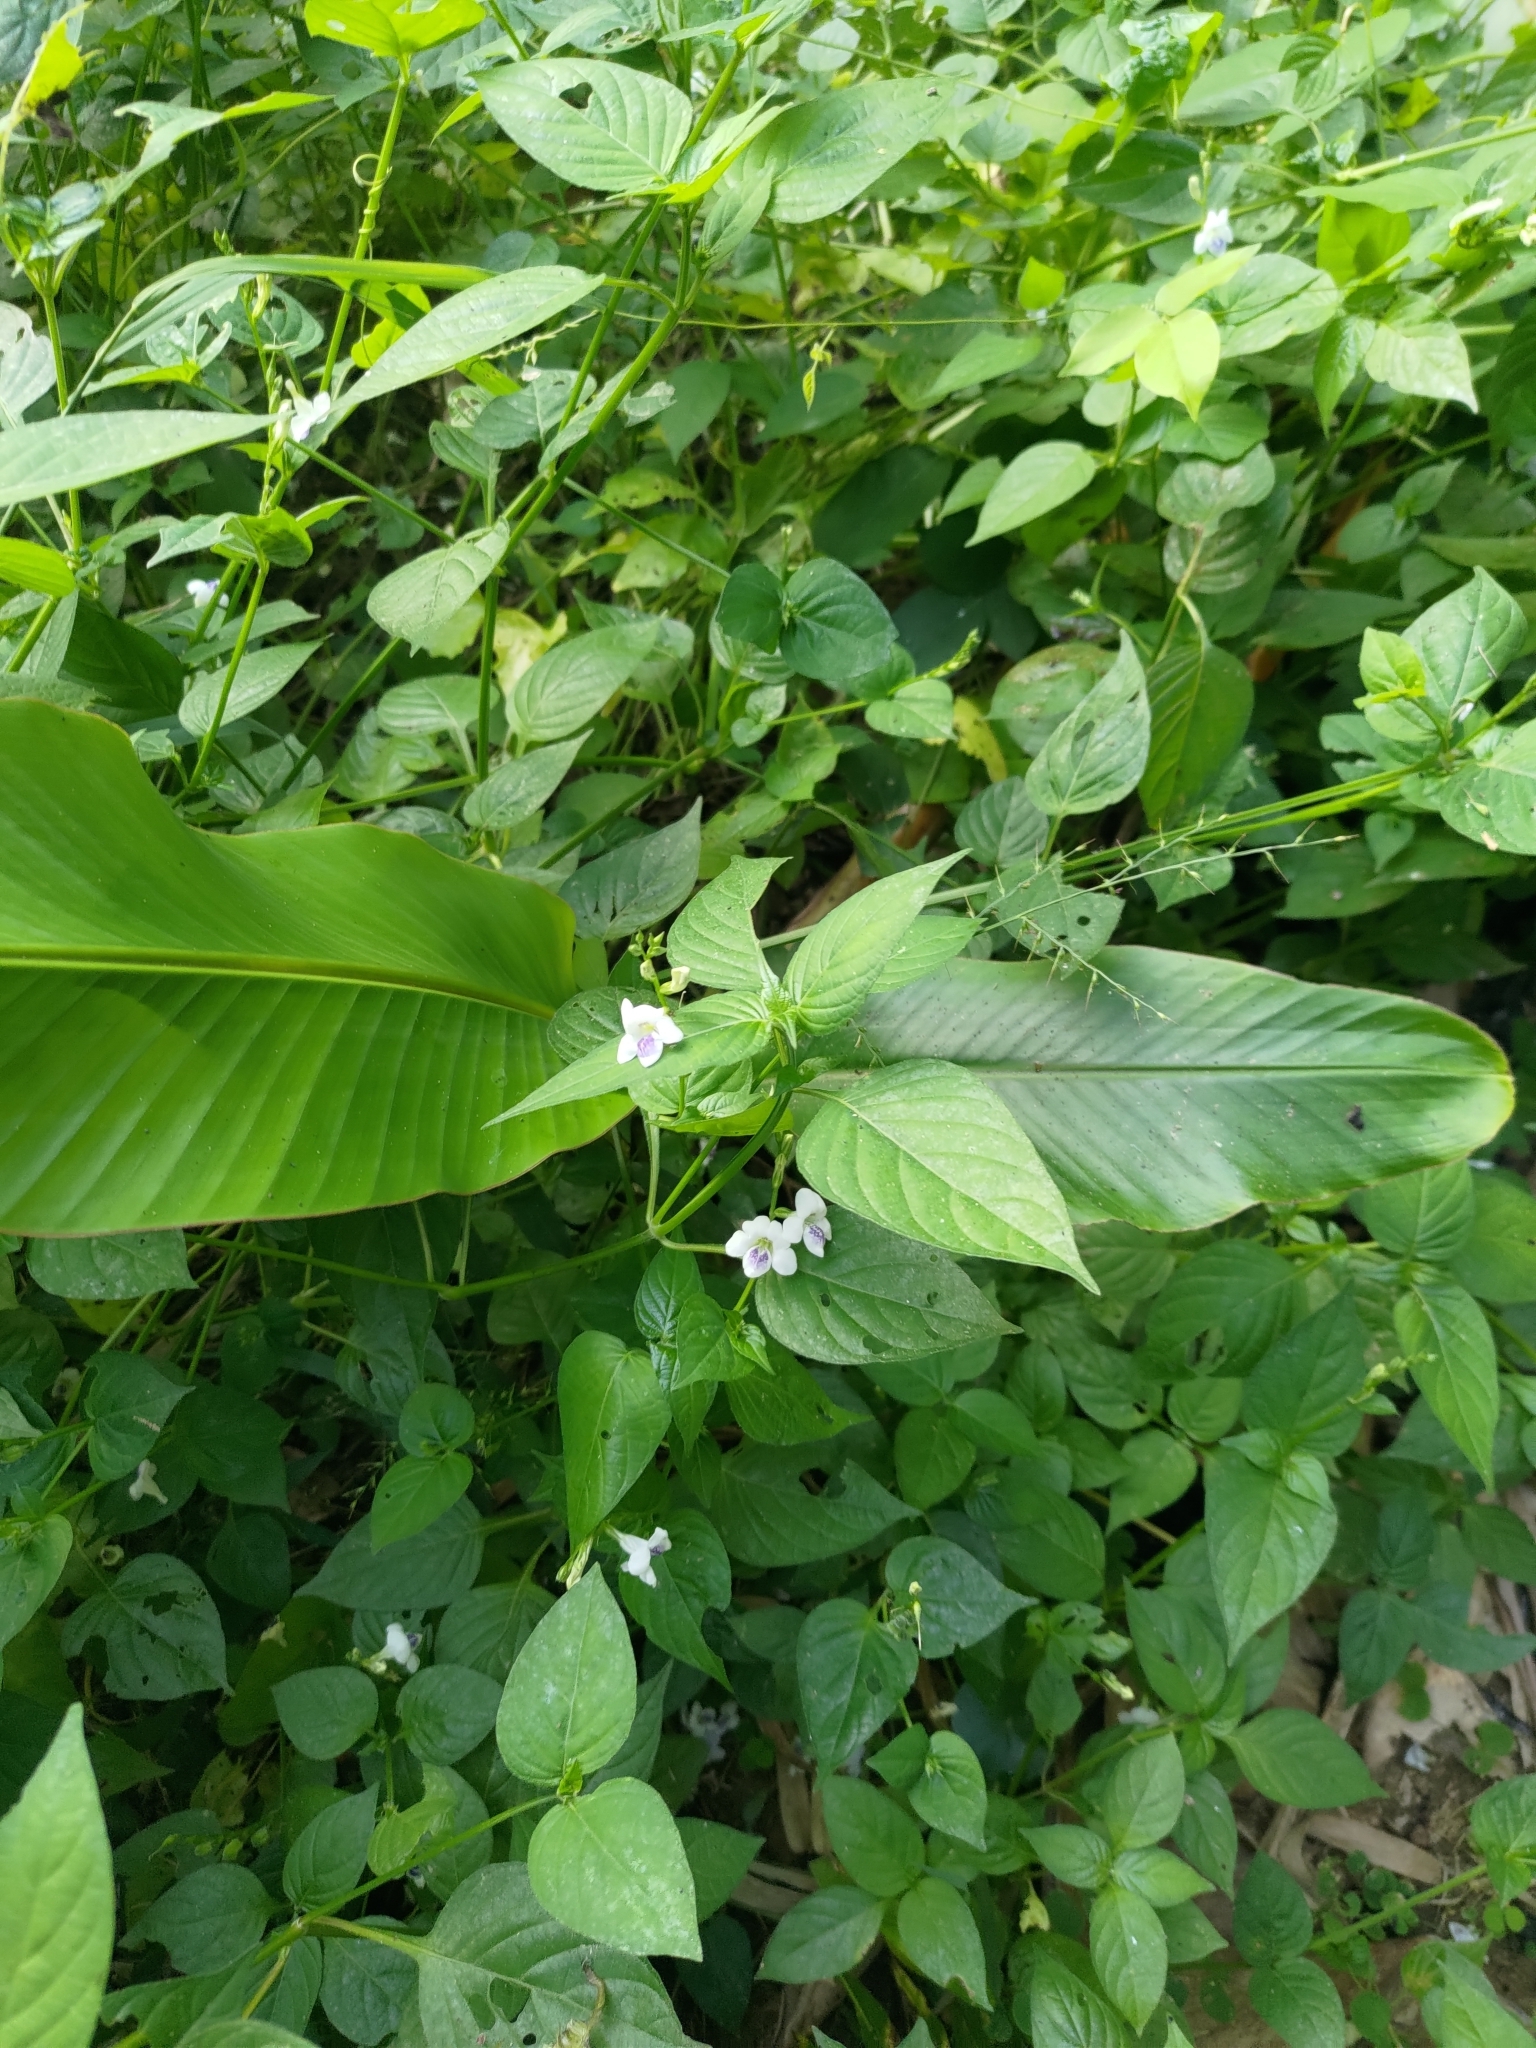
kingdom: Plantae
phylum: Tracheophyta
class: Magnoliopsida
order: Lamiales
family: Acanthaceae
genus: Asystasia
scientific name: Asystasia intrusa
